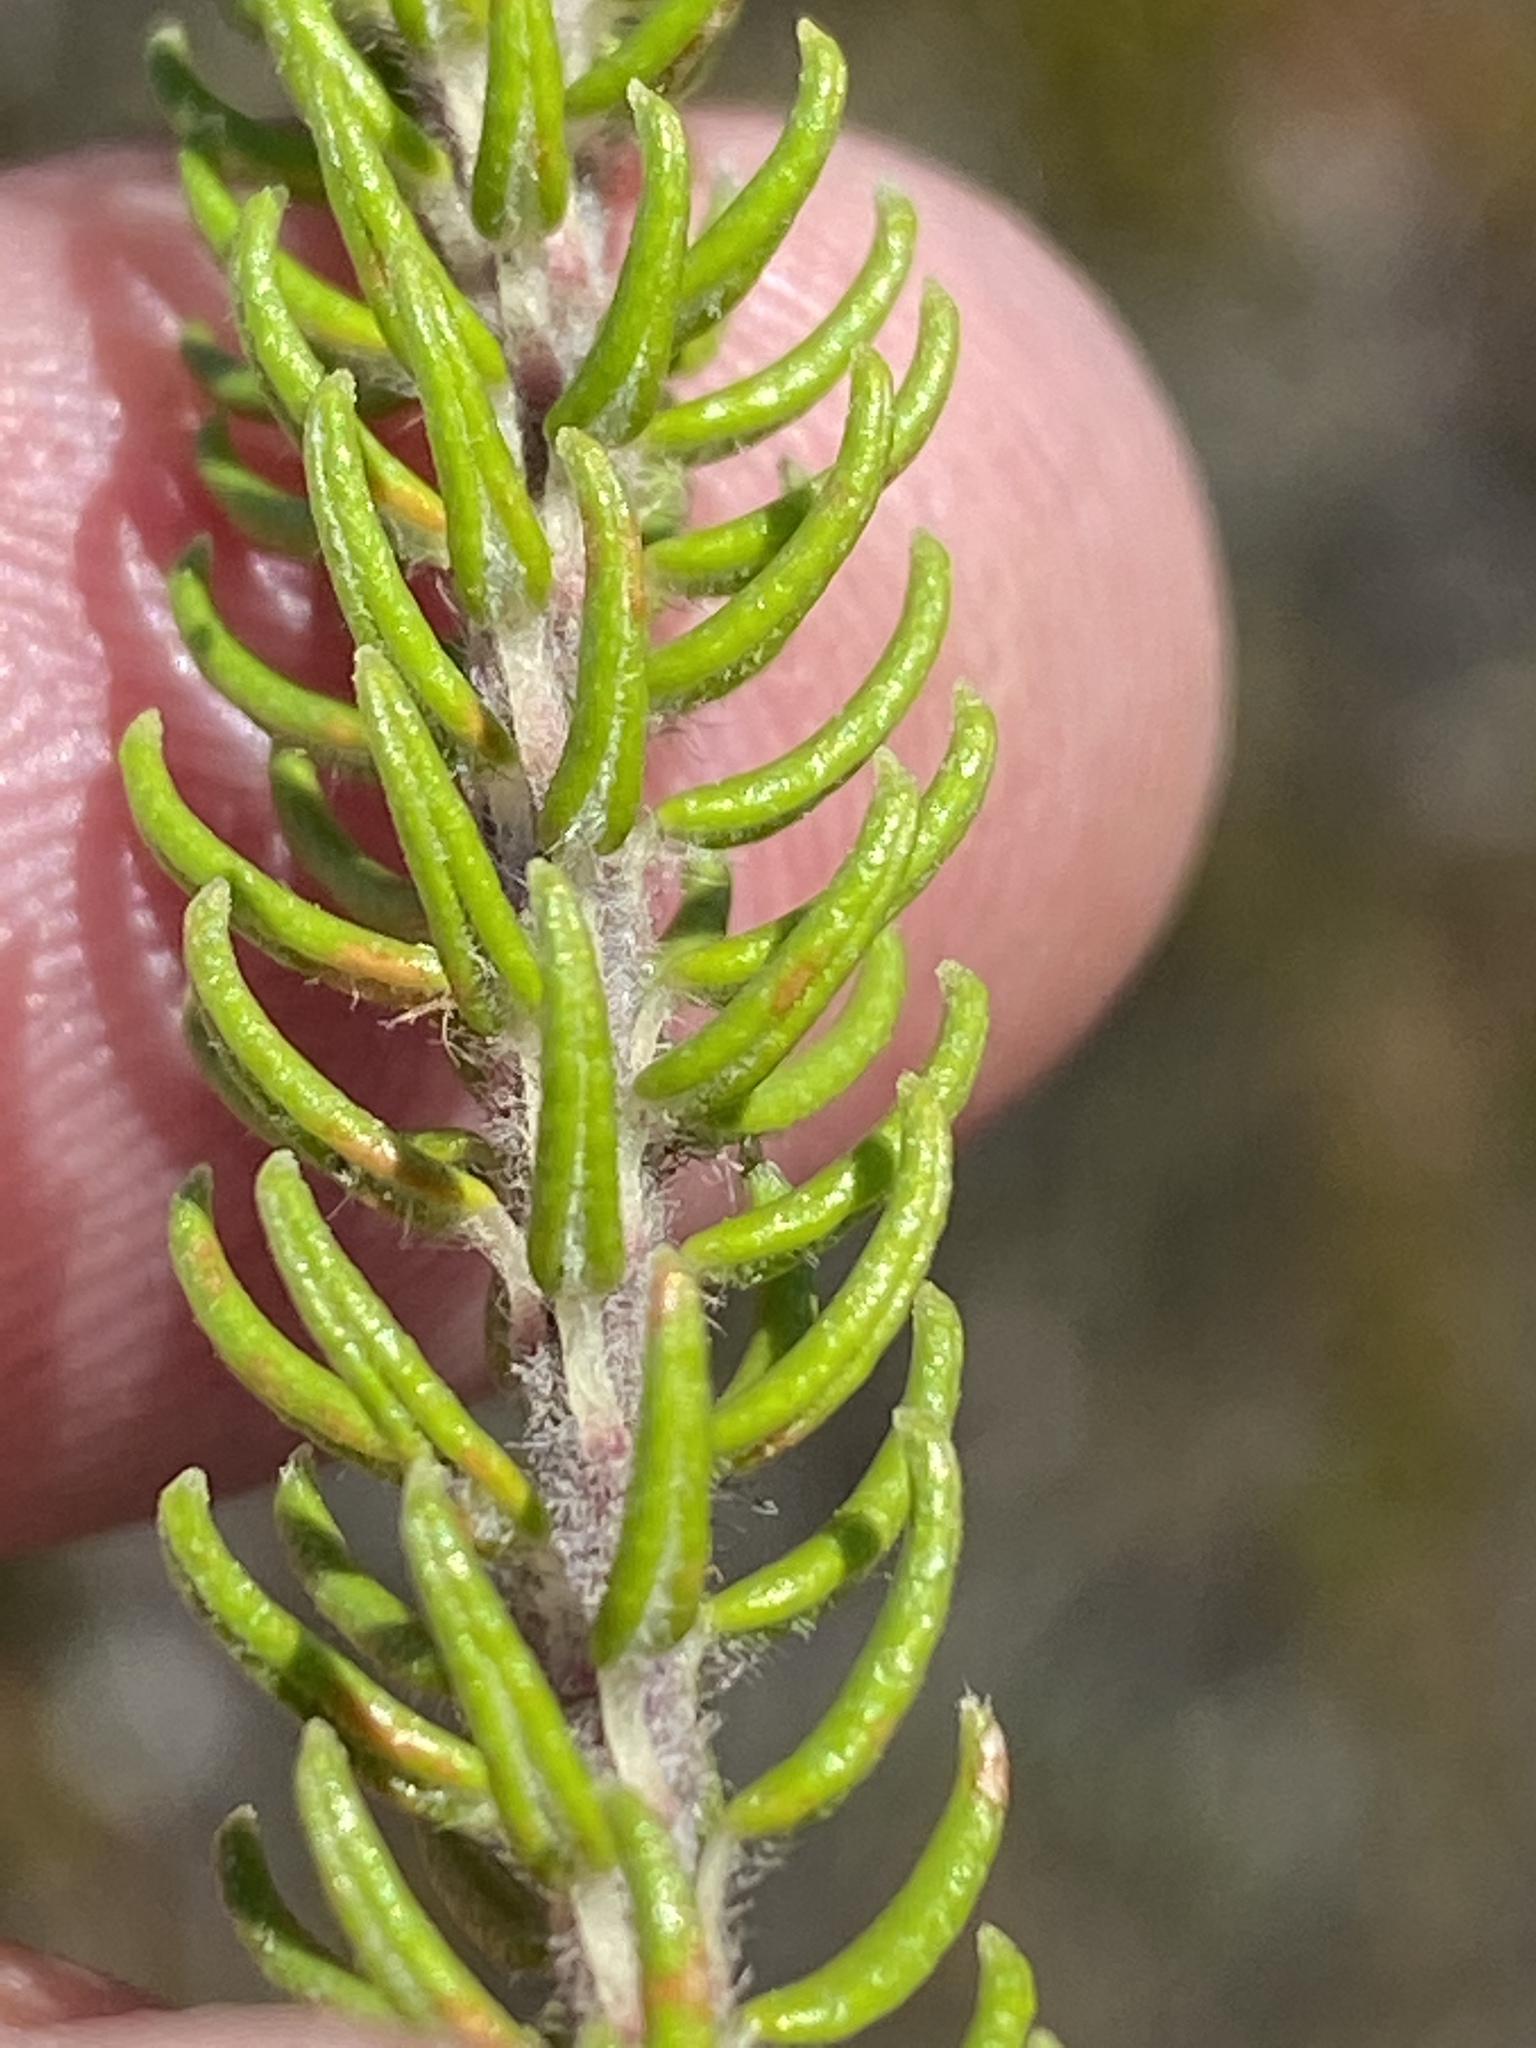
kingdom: Plantae
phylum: Tracheophyta
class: Magnoliopsida
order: Rosales
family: Rhamnaceae
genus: Phylica
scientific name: Phylica curvifolia
